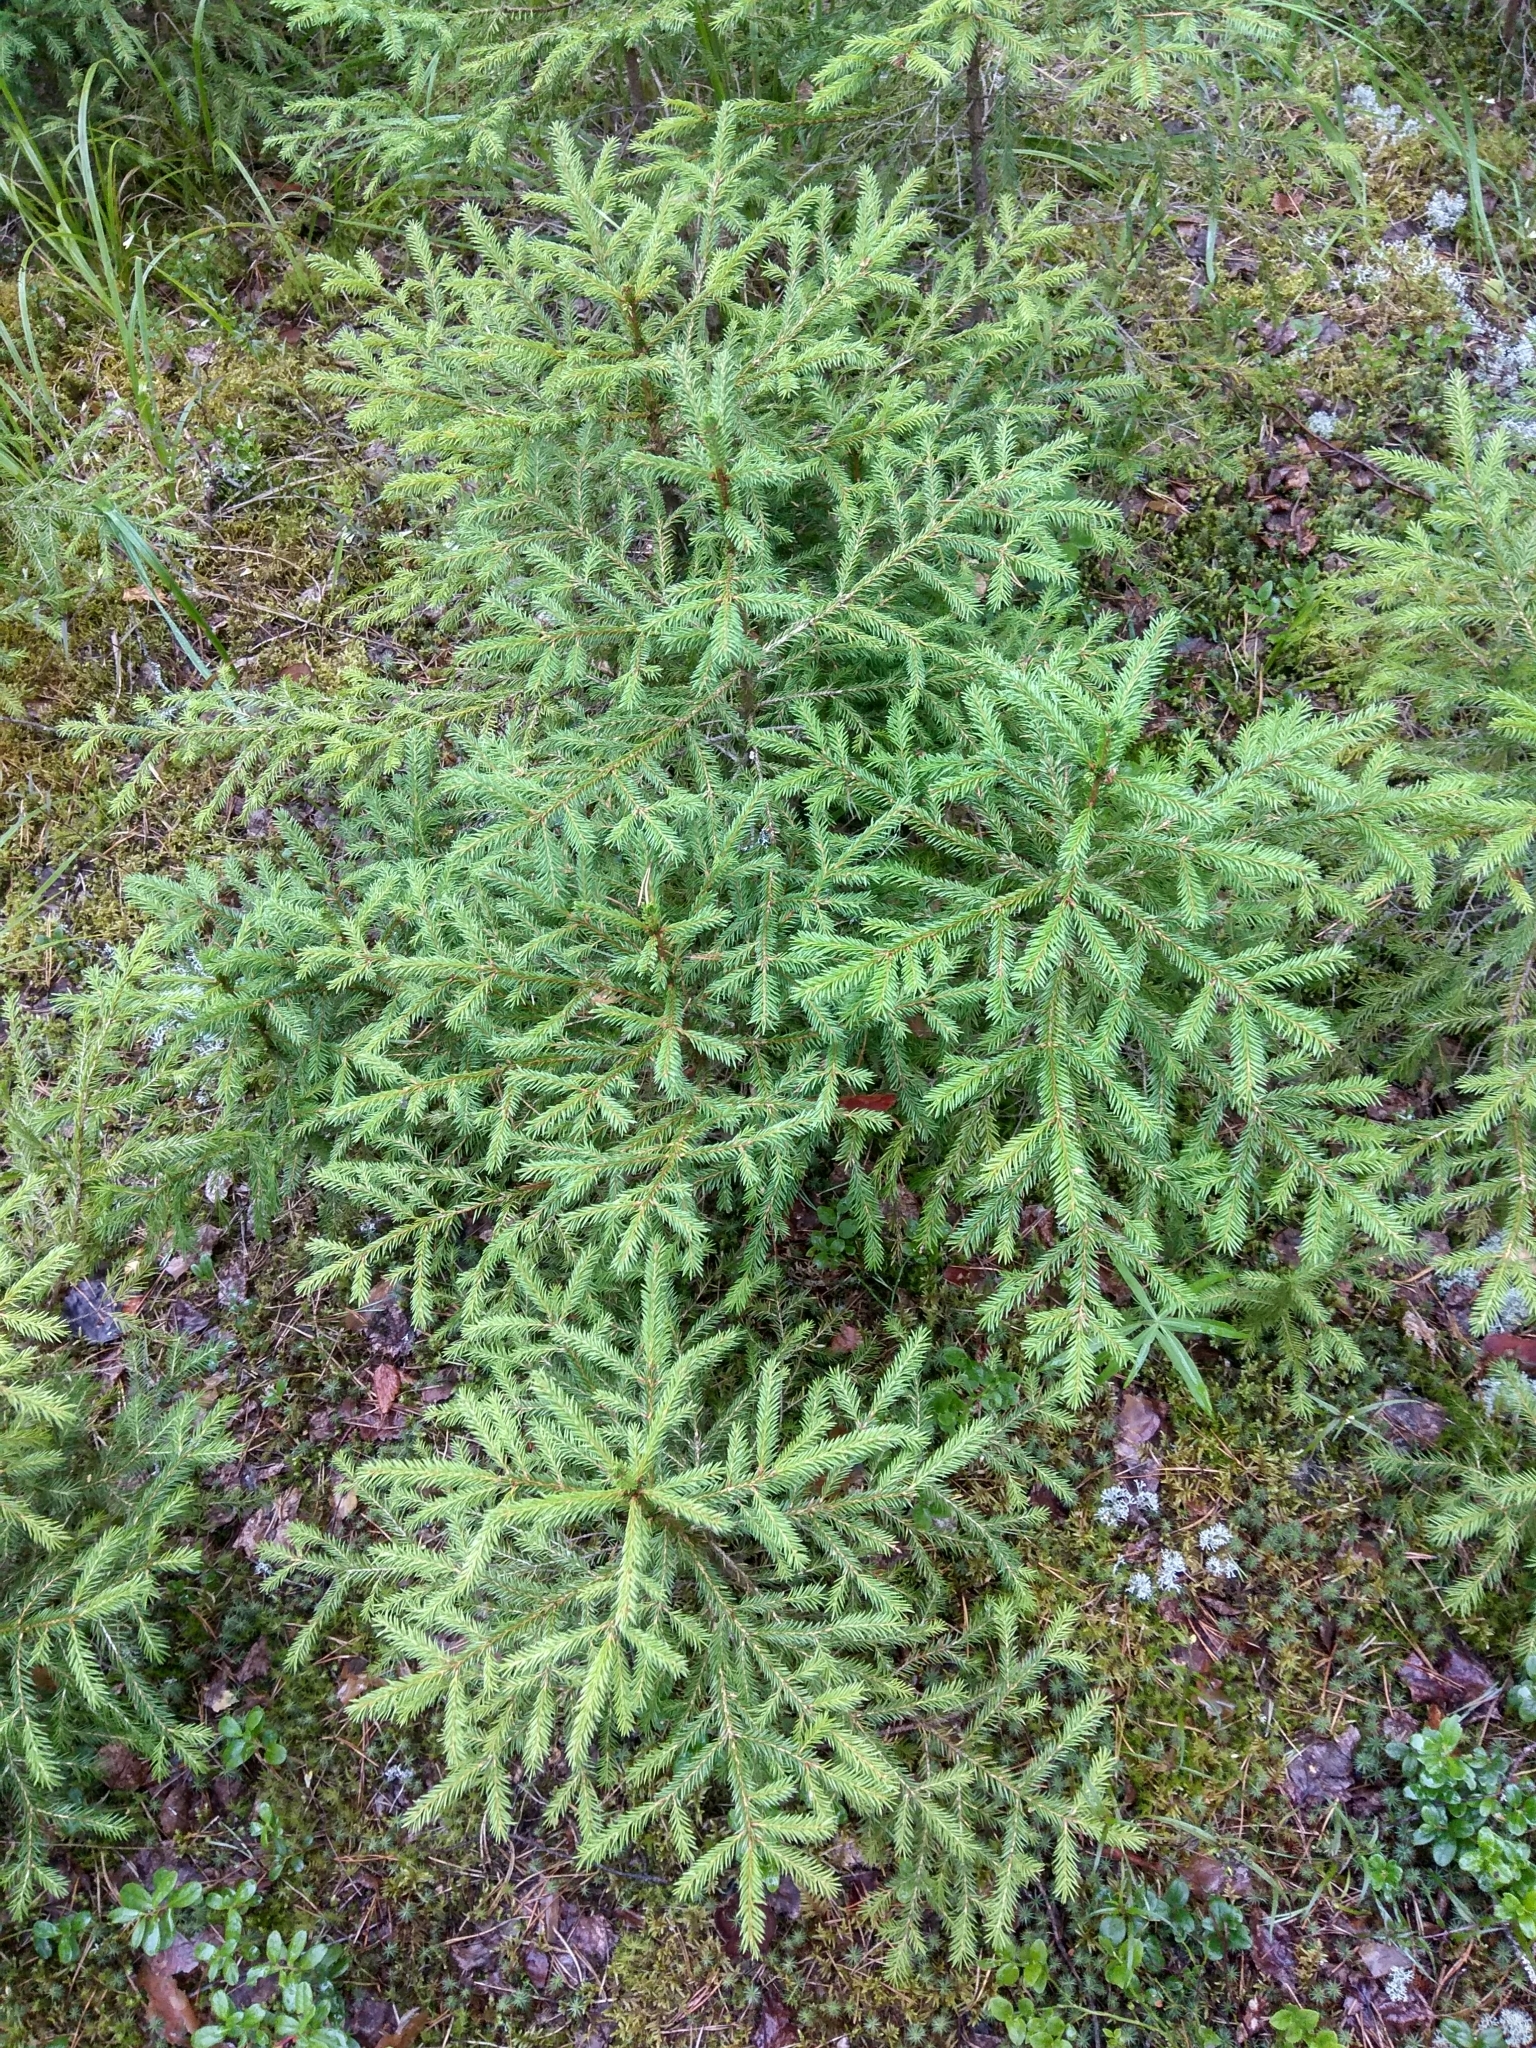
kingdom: Plantae
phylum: Tracheophyta
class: Pinopsida
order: Pinales
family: Pinaceae
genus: Picea
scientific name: Picea abies
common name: Norway spruce
